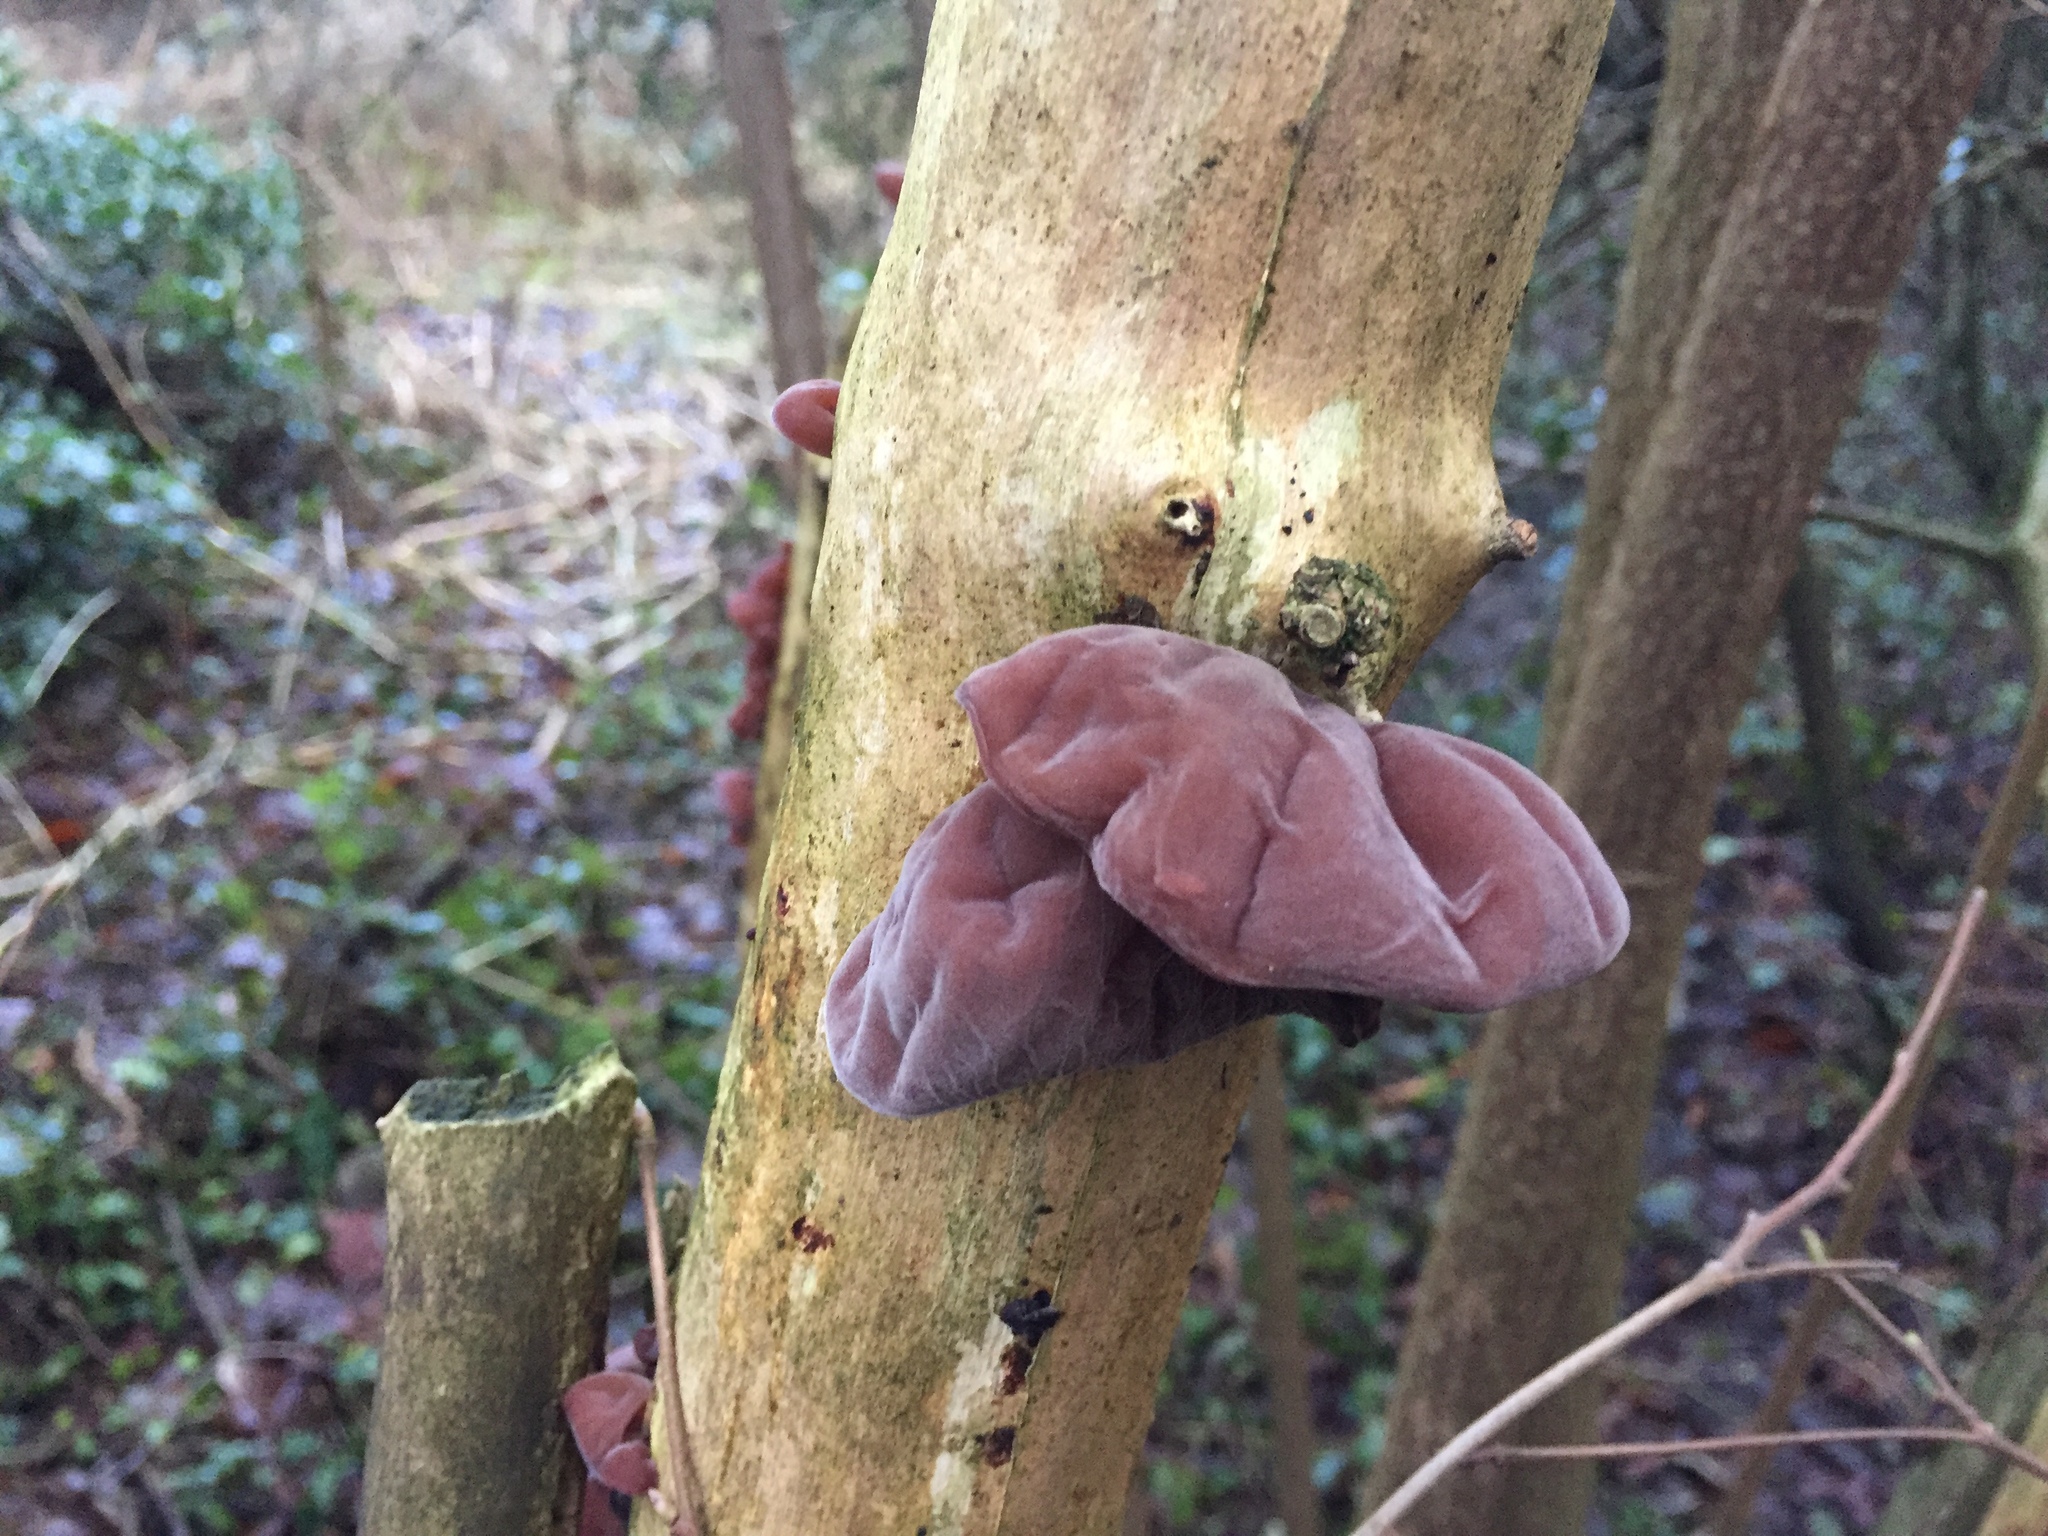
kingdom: Fungi
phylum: Basidiomycota
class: Agaricomycetes
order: Auriculariales
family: Auriculariaceae
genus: Auricularia
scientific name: Auricularia auricula-judae
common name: Jelly ear
